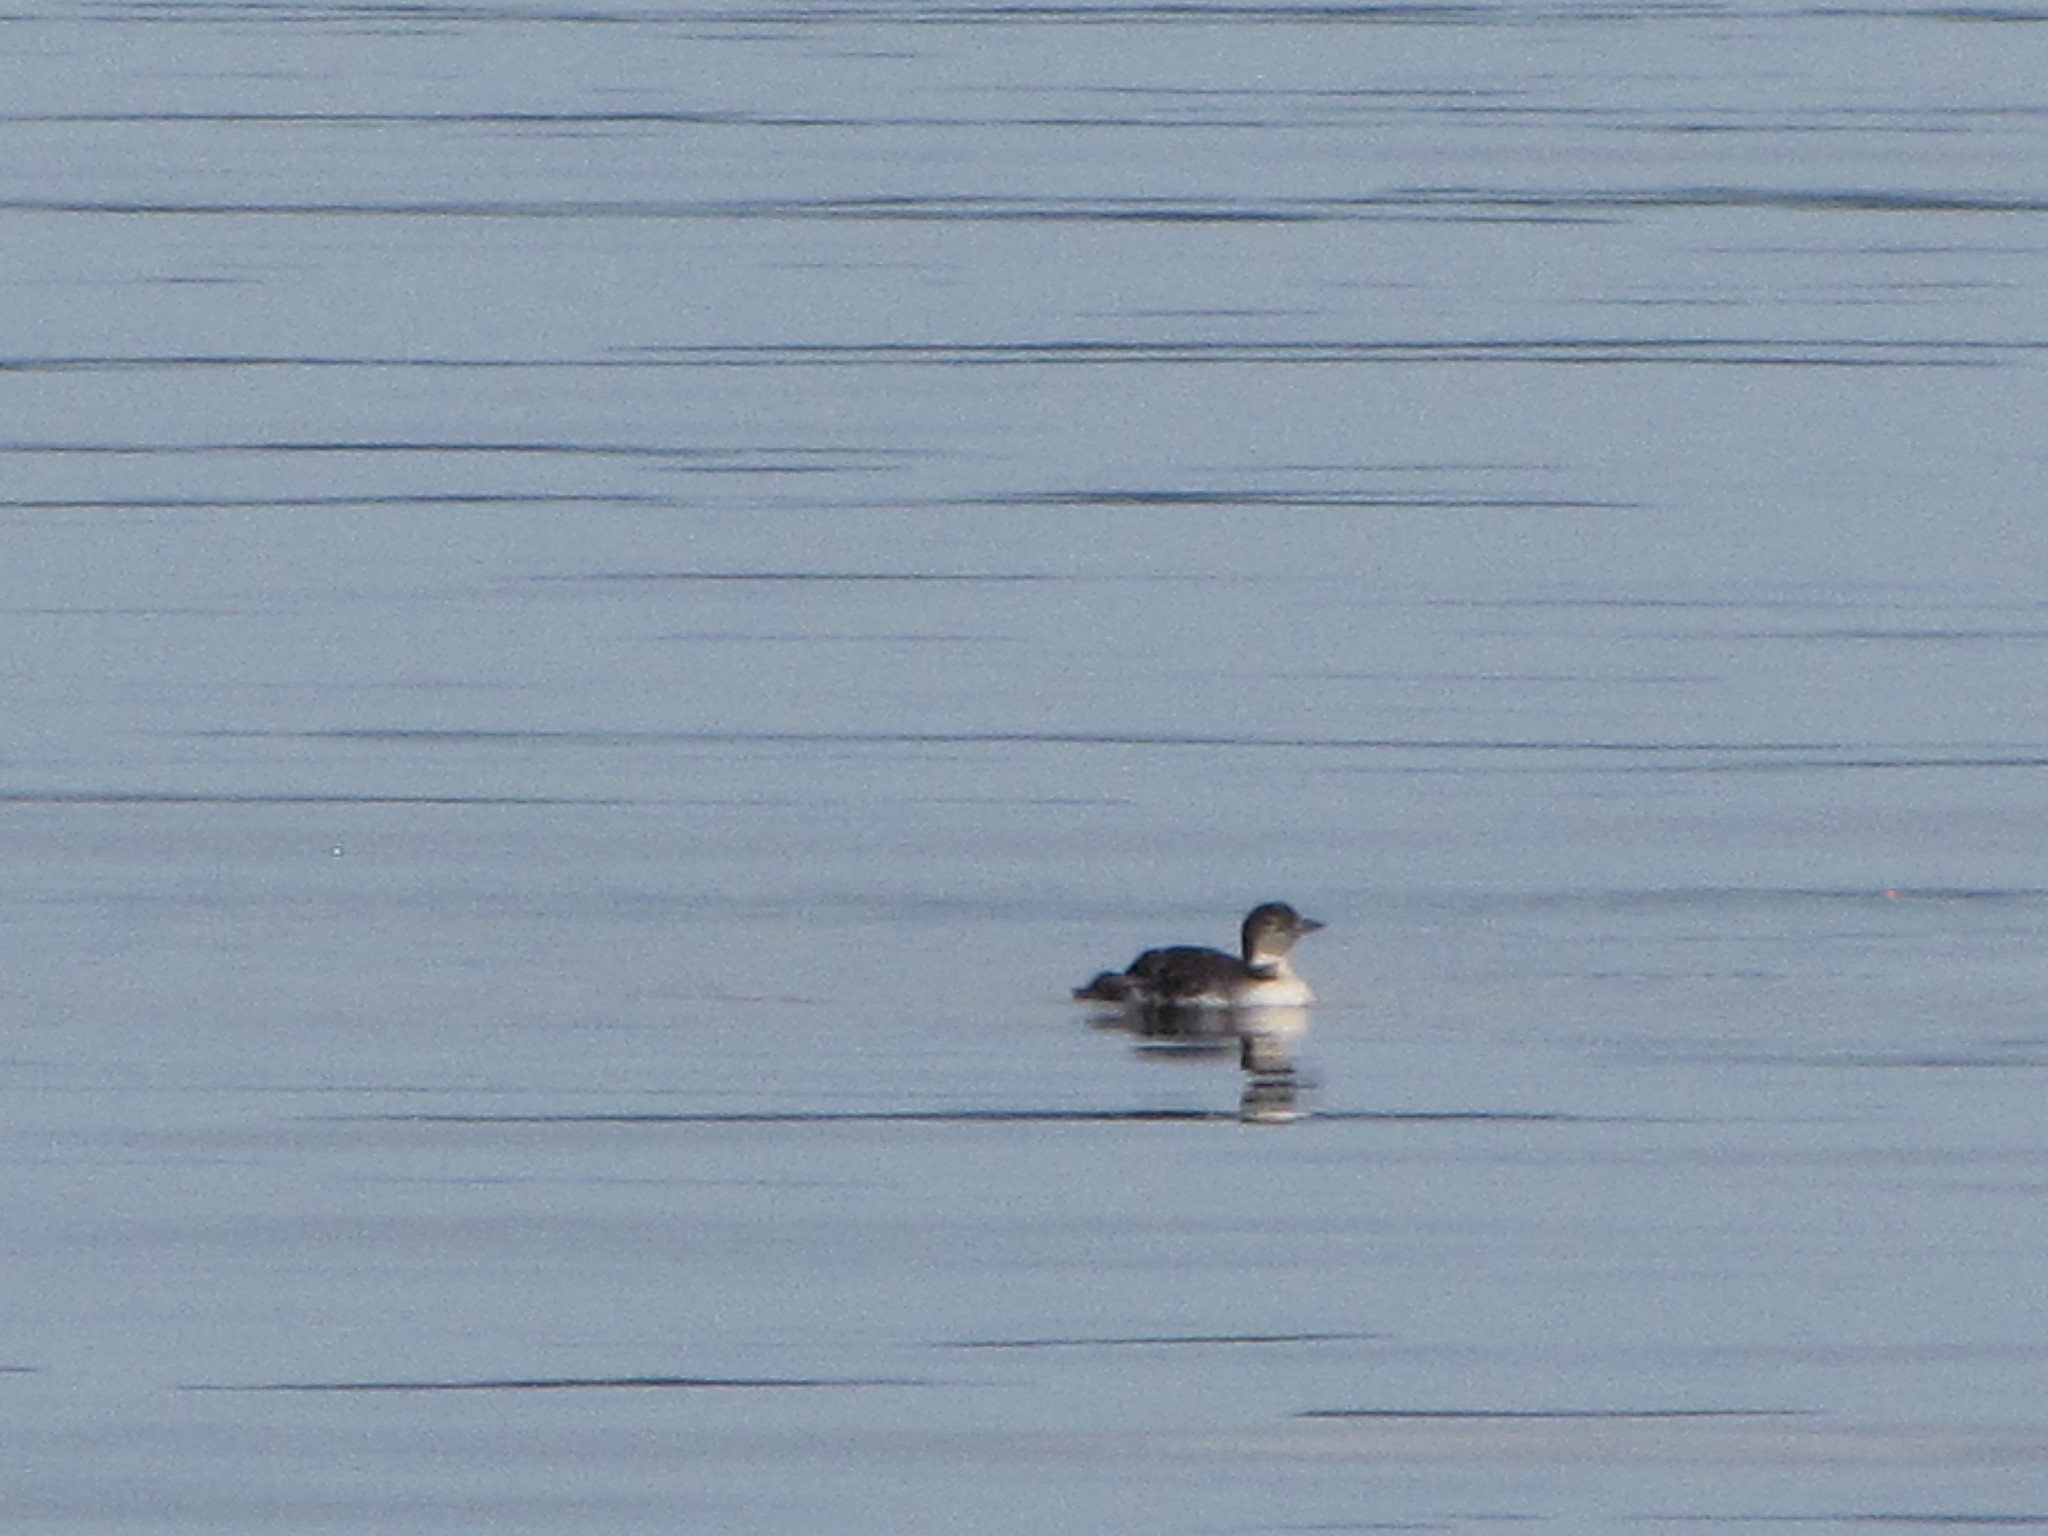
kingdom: Animalia
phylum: Chordata
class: Aves
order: Gaviiformes
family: Gaviidae
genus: Gavia
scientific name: Gavia immer
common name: Common loon
